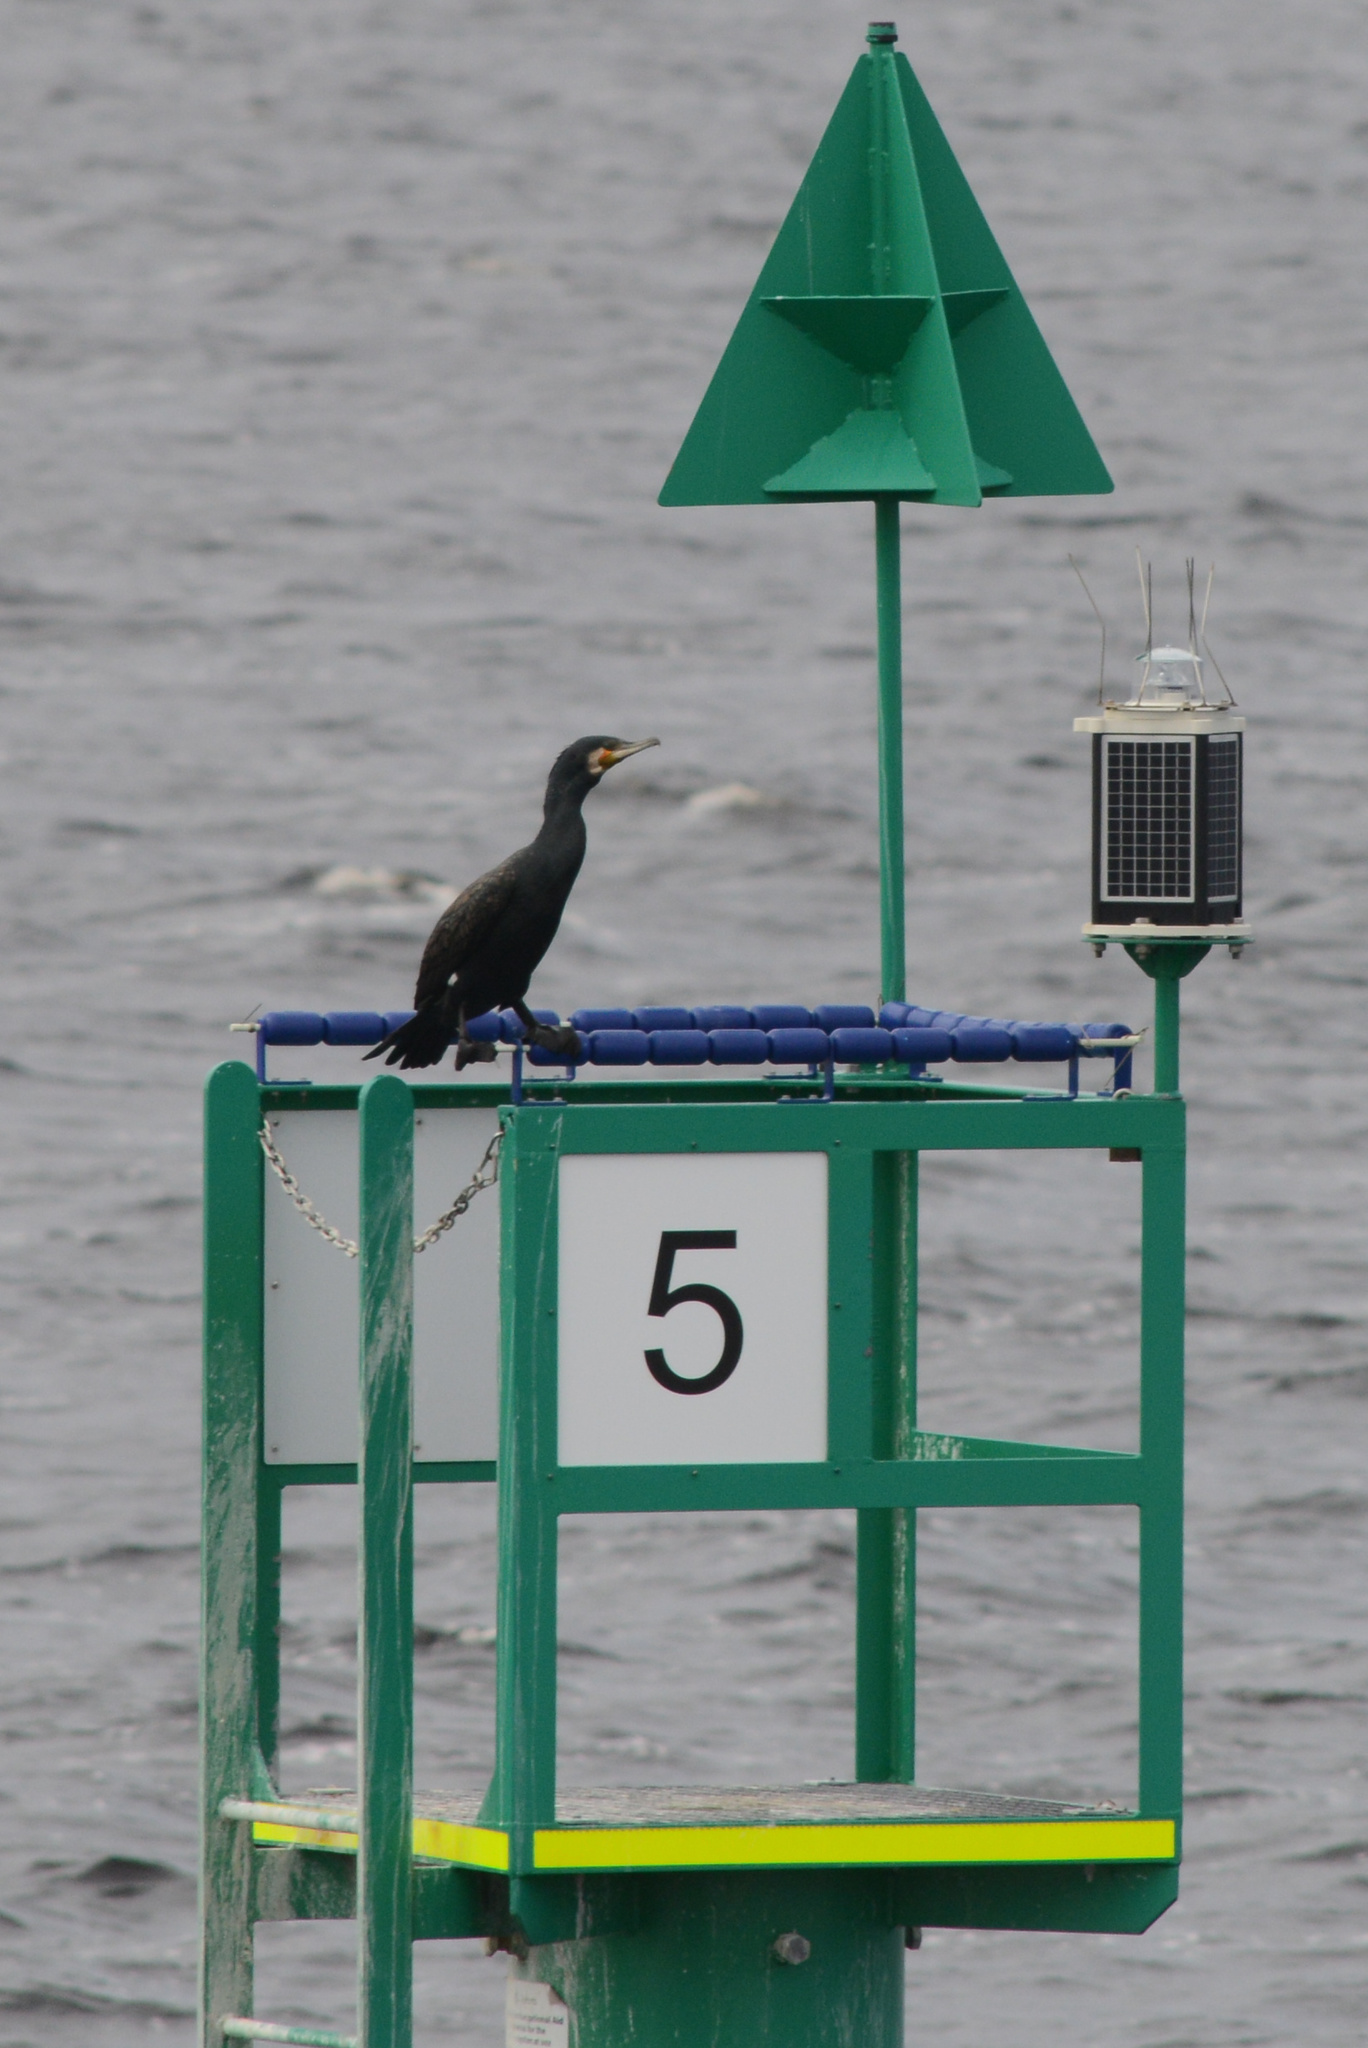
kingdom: Animalia
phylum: Chordata
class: Aves
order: Suliformes
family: Phalacrocoracidae
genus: Phalacrocorax
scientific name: Phalacrocorax carbo
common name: Great cormorant
